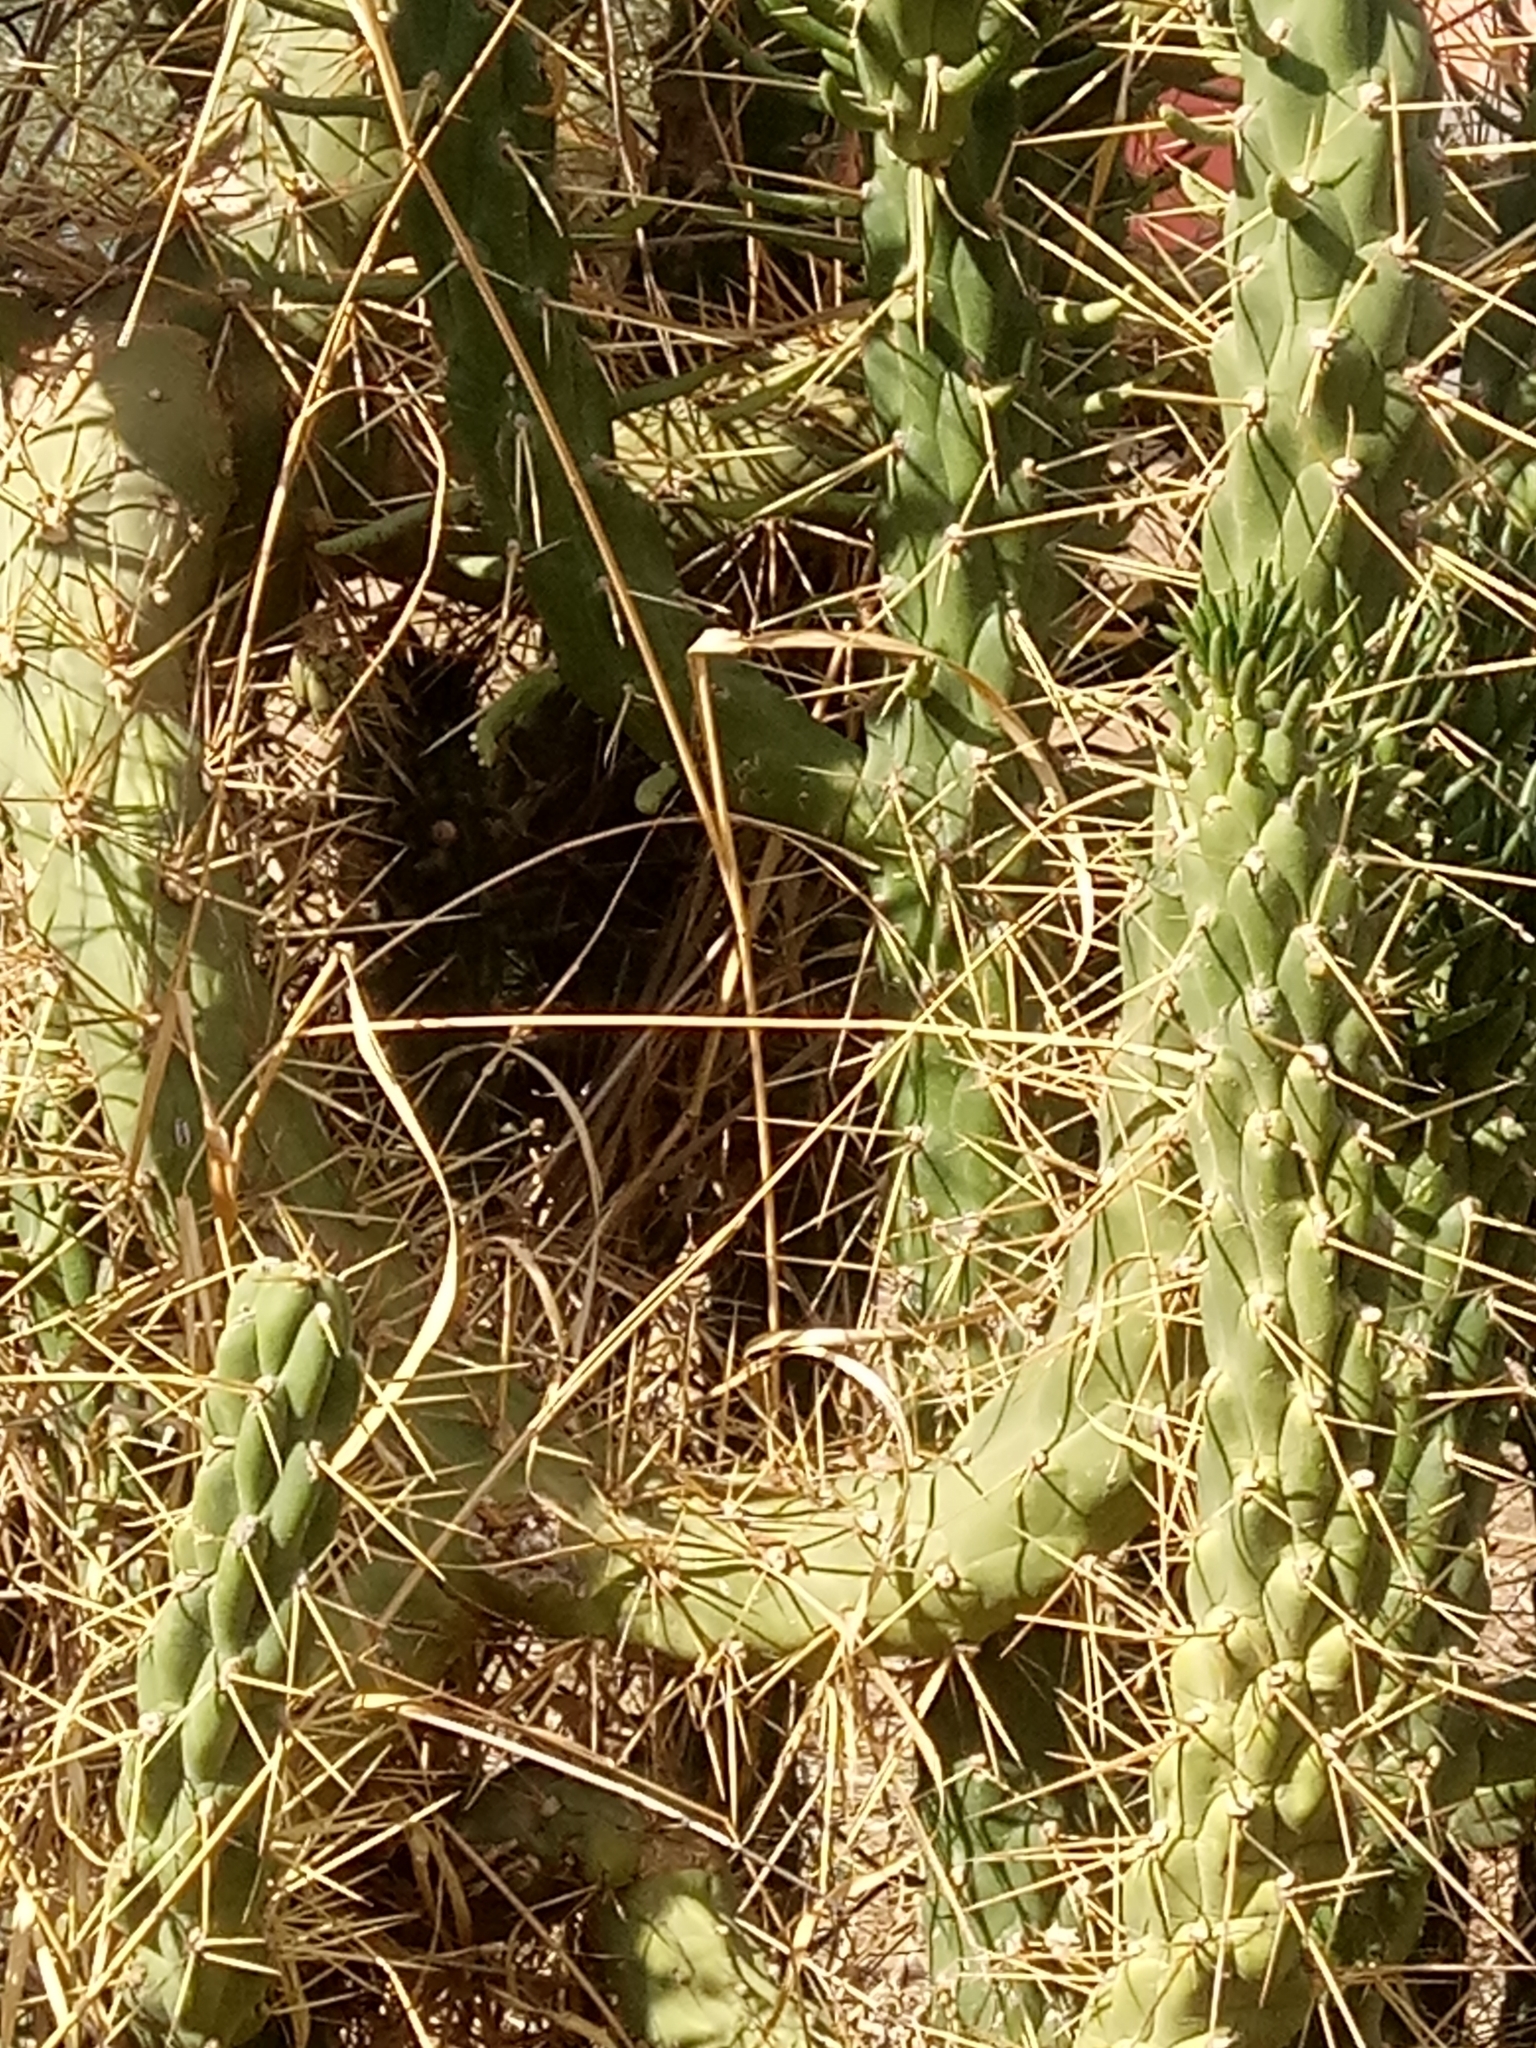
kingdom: Plantae
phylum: Tracheophyta
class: Magnoliopsida
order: Caryophyllales
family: Cactaceae
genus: Austrocylindropuntia
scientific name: Austrocylindropuntia subulata
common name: Eve's needle cactus
